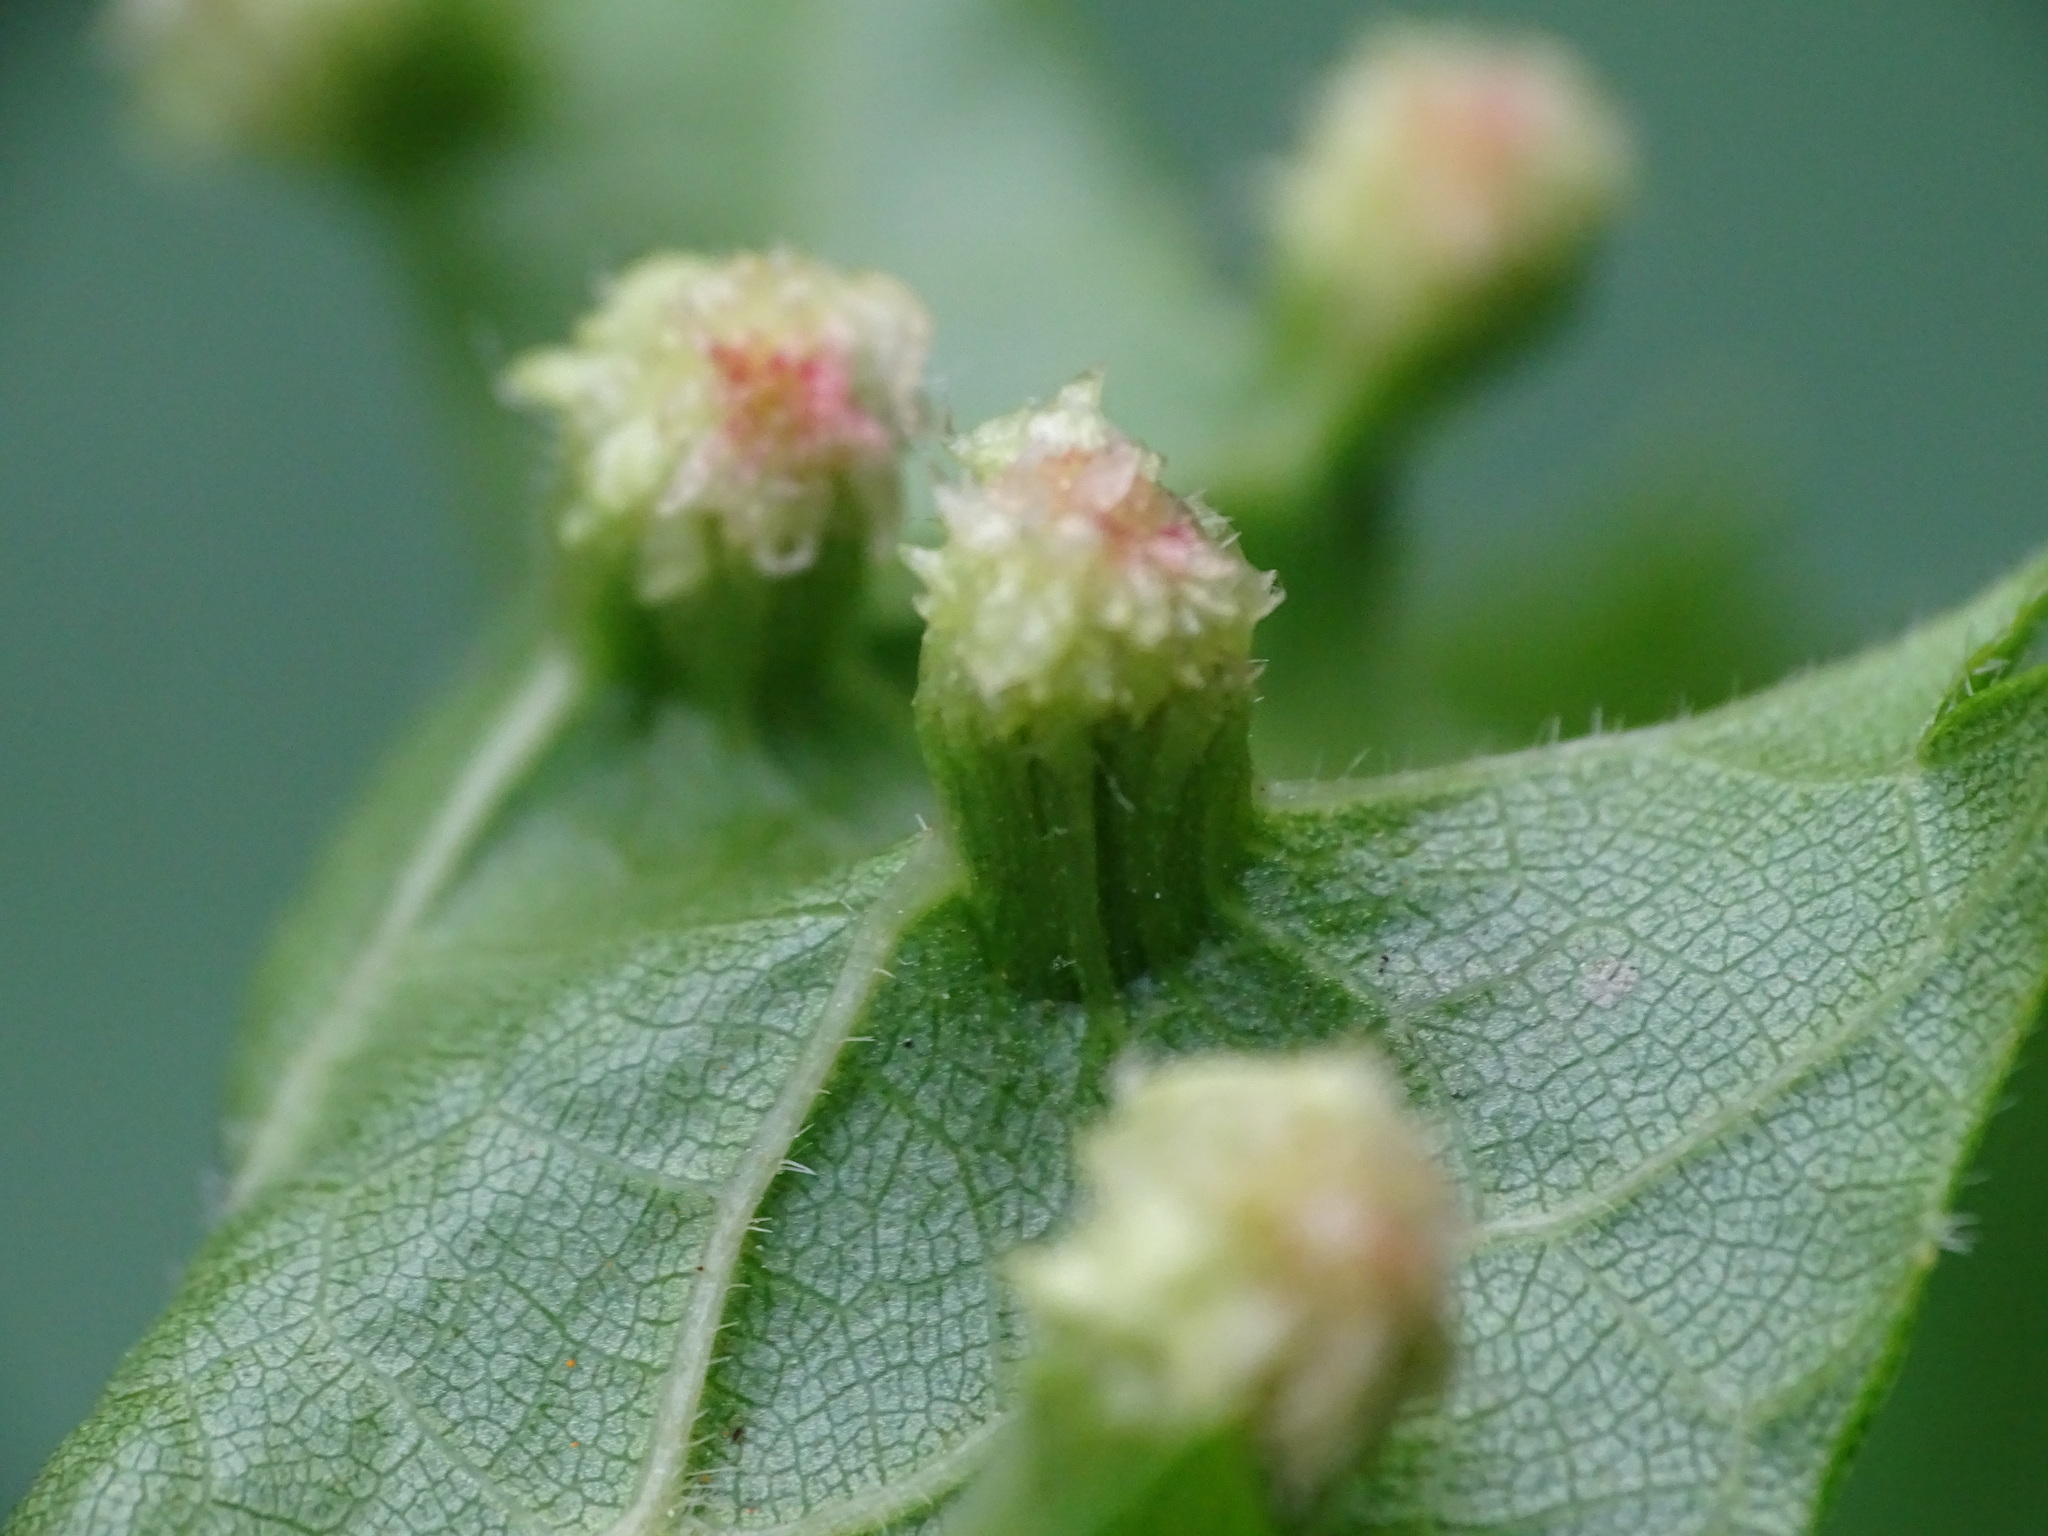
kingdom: Animalia
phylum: Arthropoda
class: Insecta
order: Hemiptera
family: Phylloxeridae
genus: Daktulosphaira
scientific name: Daktulosphaira vitifoliae
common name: Grape phylloxera
